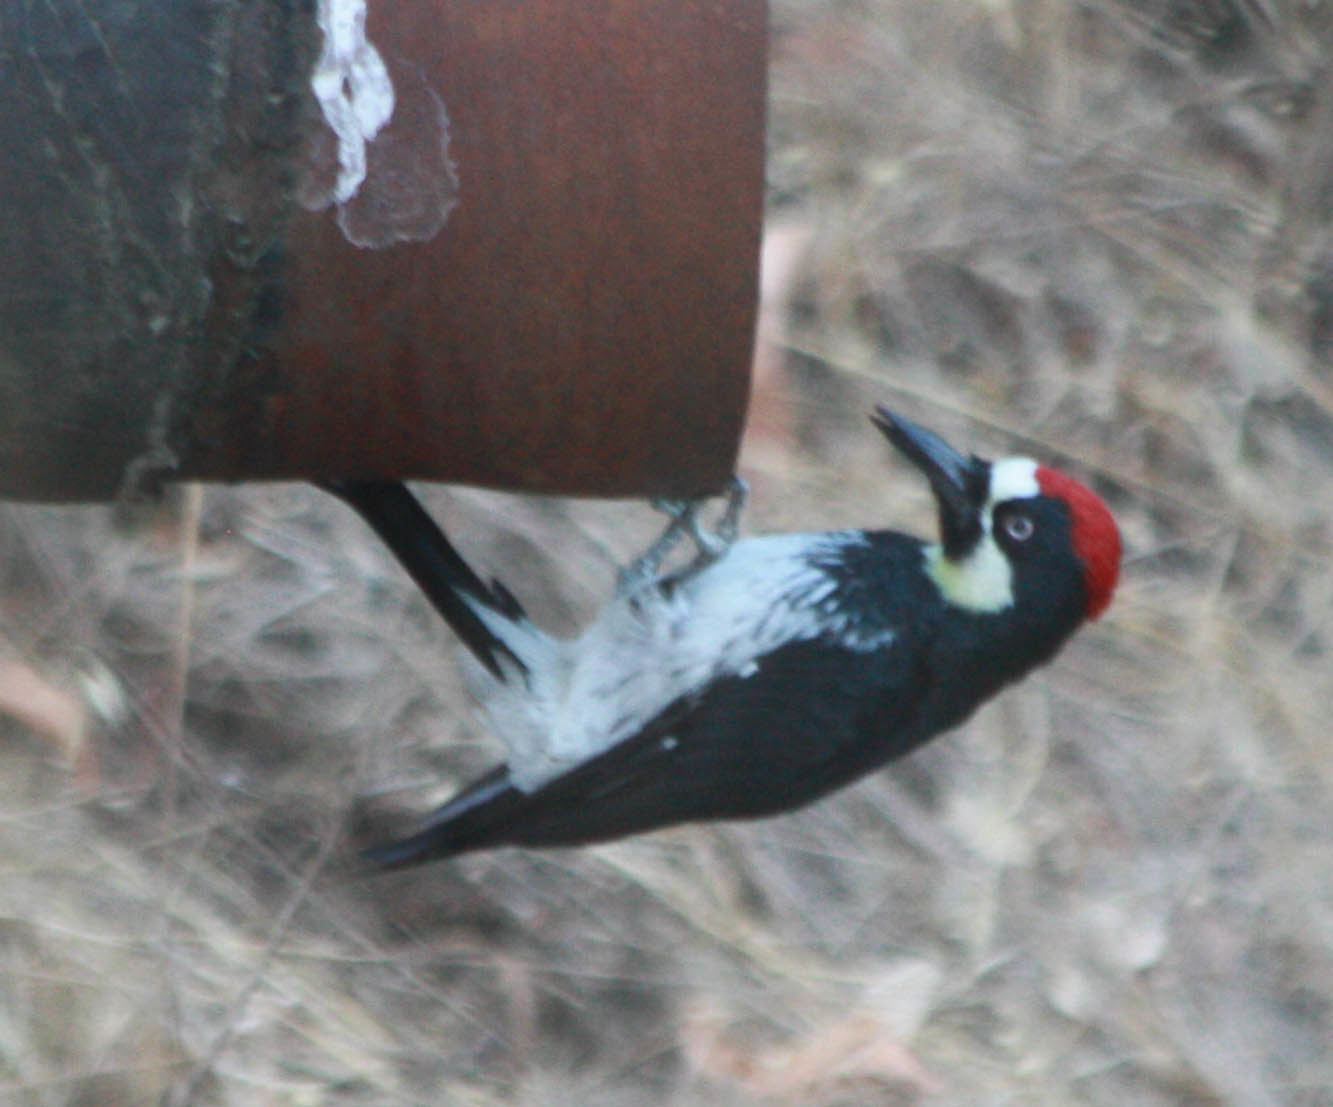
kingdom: Animalia
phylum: Chordata
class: Aves
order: Piciformes
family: Picidae
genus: Melanerpes
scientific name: Melanerpes formicivorus
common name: Acorn woodpecker
